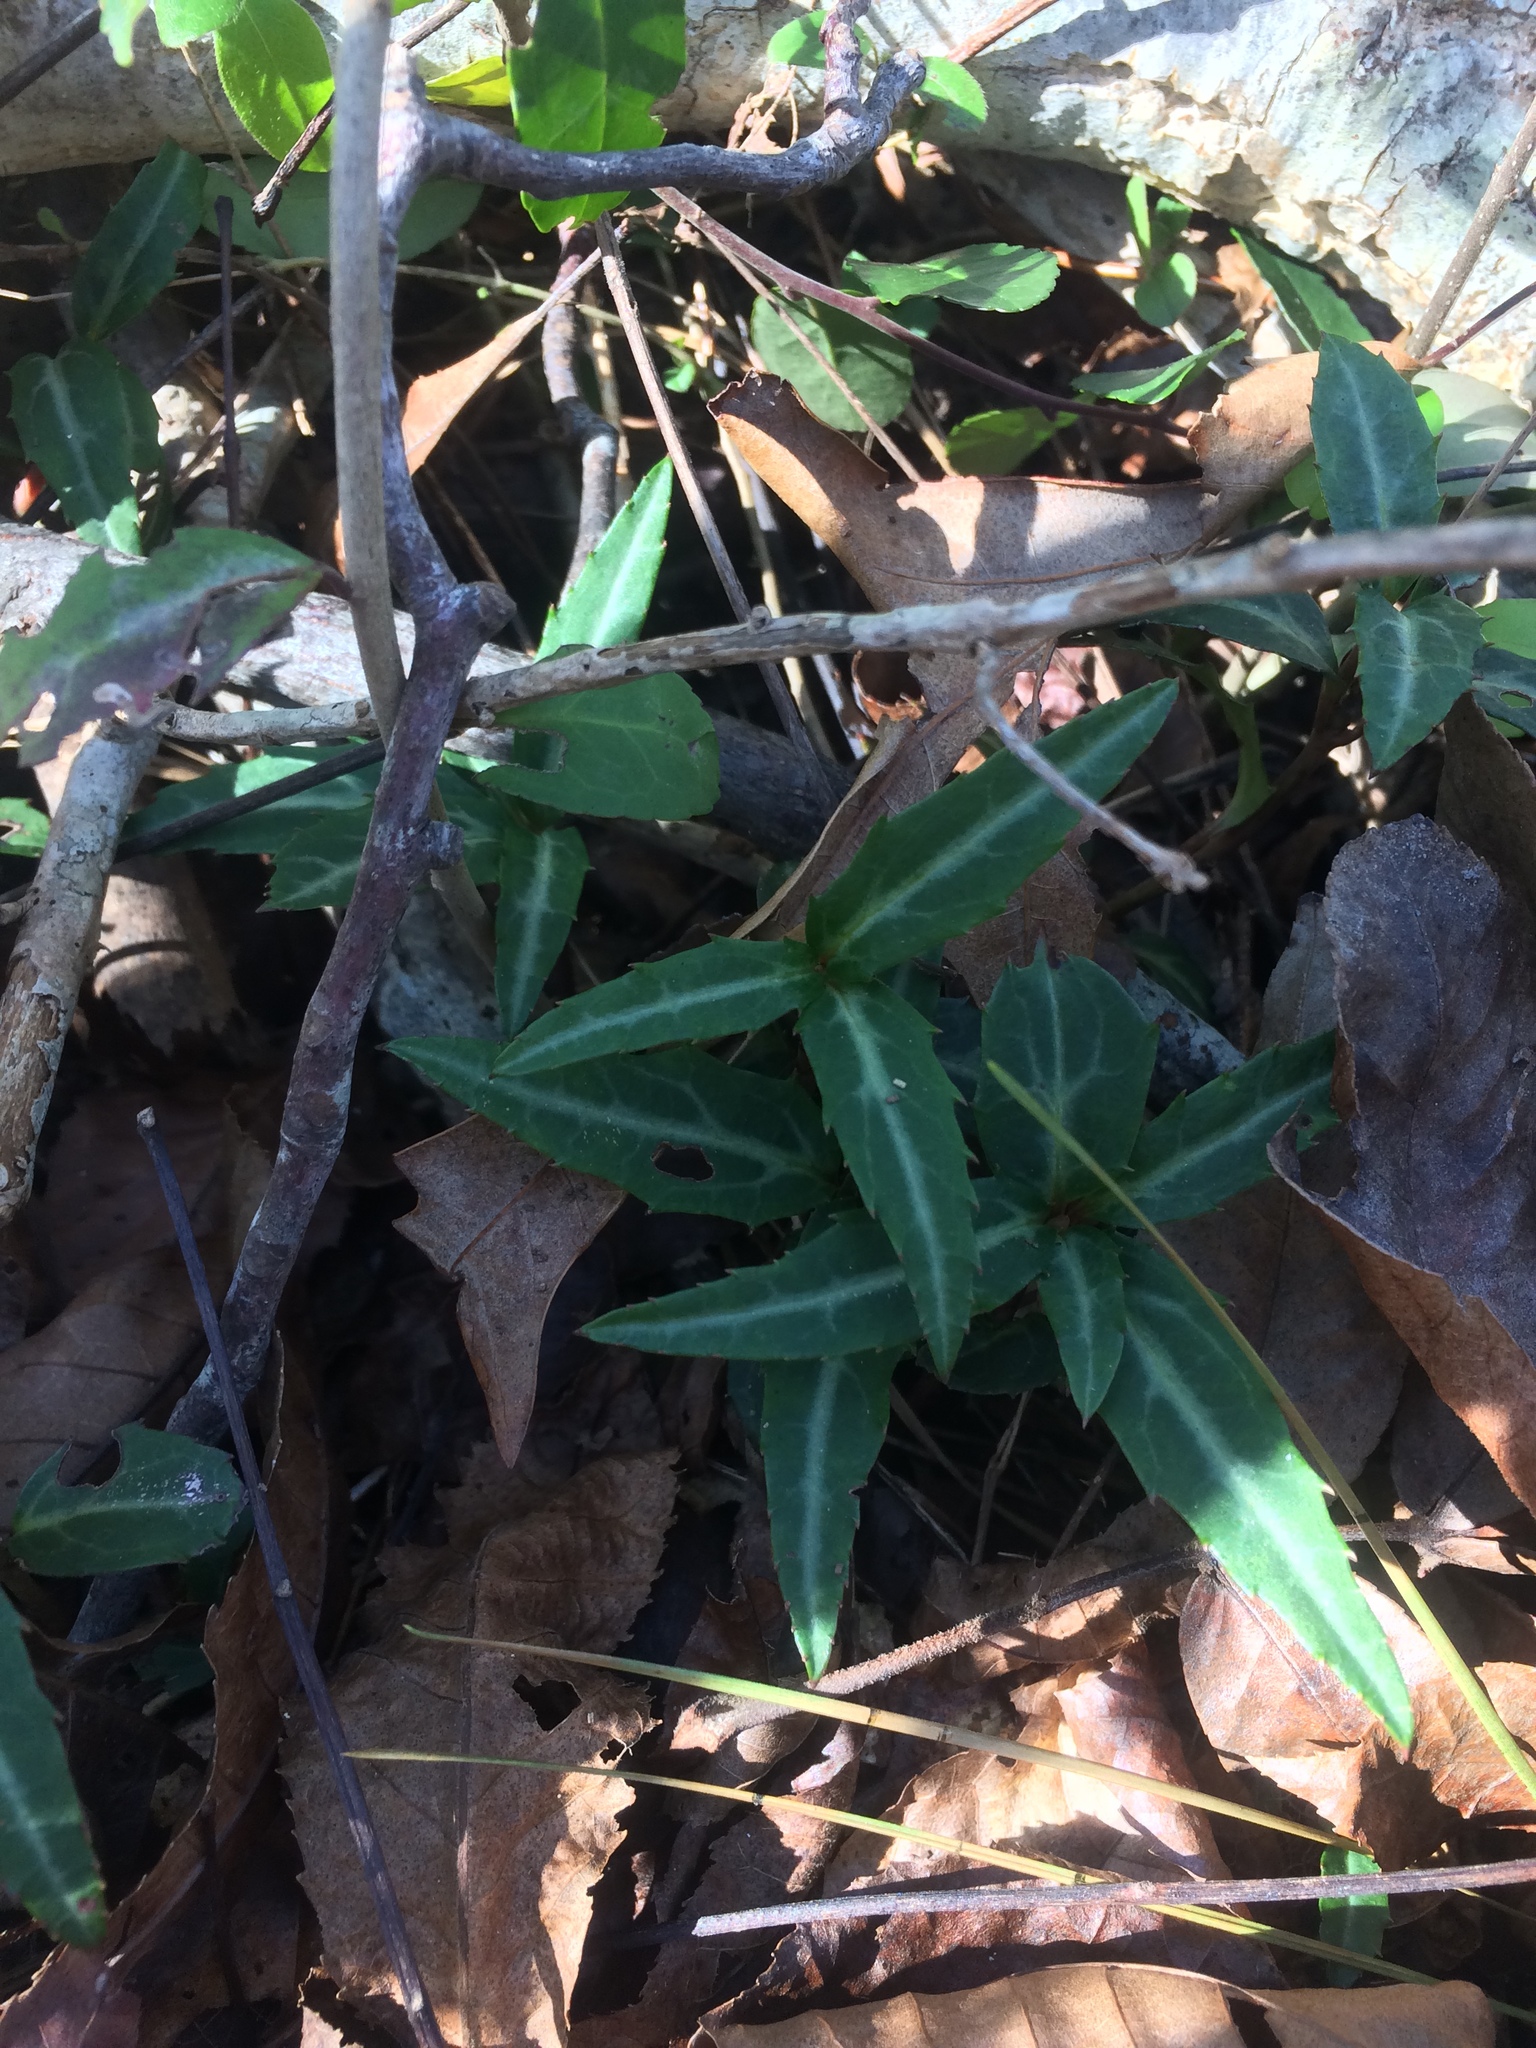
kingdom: Plantae
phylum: Tracheophyta
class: Magnoliopsida
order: Ericales
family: Ericaceae
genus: Chimaphila
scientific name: Chimaphila maculata
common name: Spotted pipsissewa
